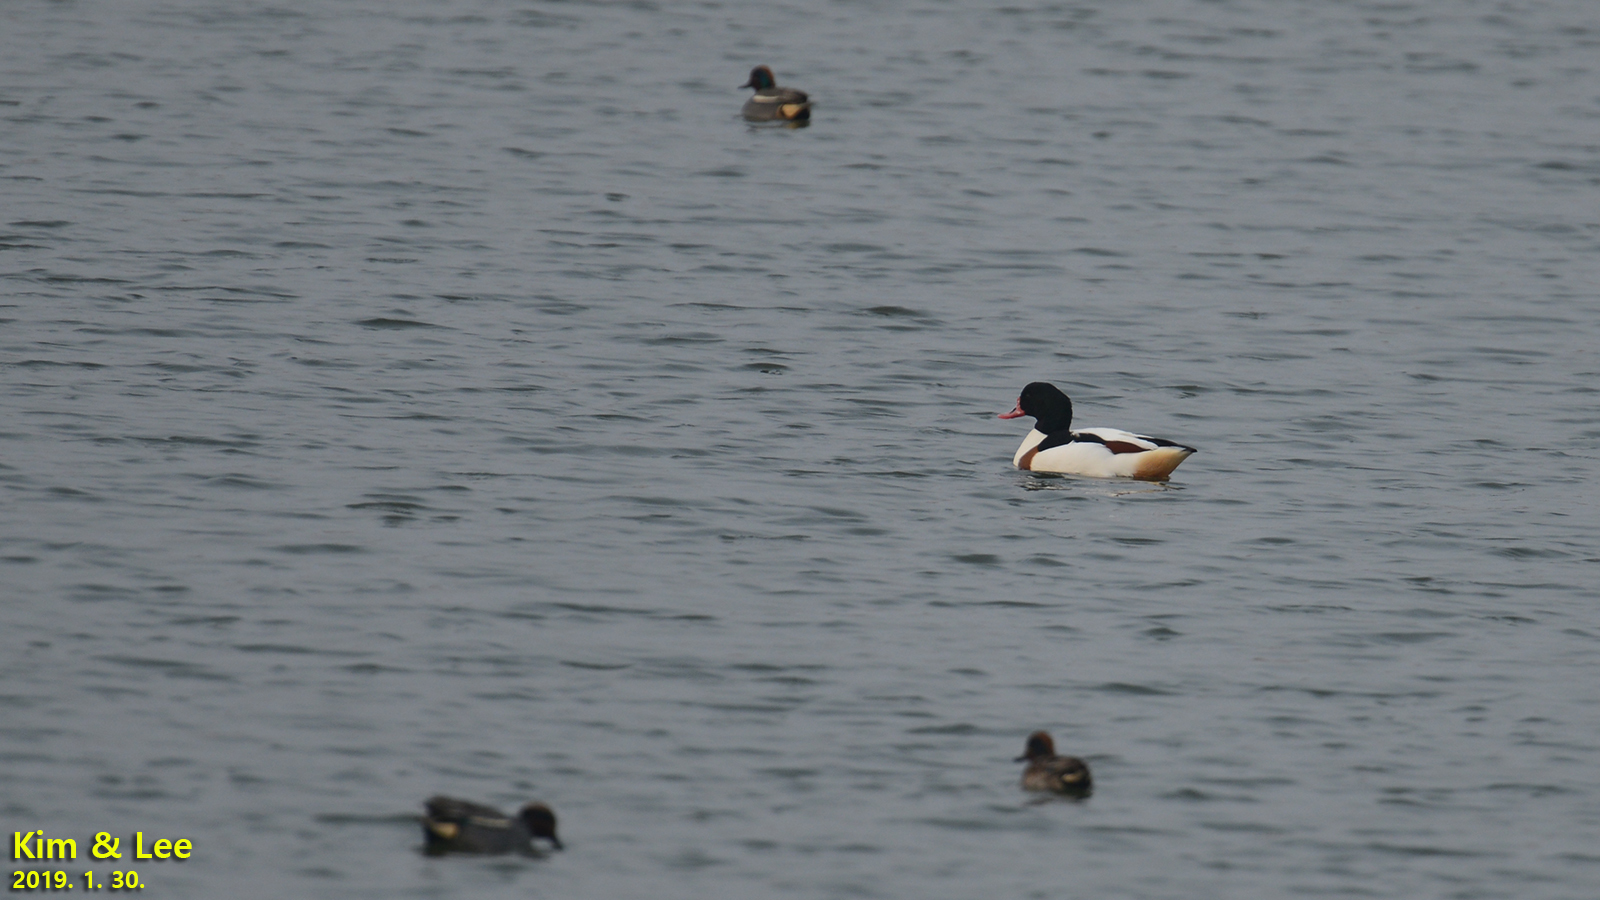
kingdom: Animalia
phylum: Chordata
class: Aves
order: Anseriformes
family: Anatidae
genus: Tadorna
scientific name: Tadorna tadorna
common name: Common shelduck
